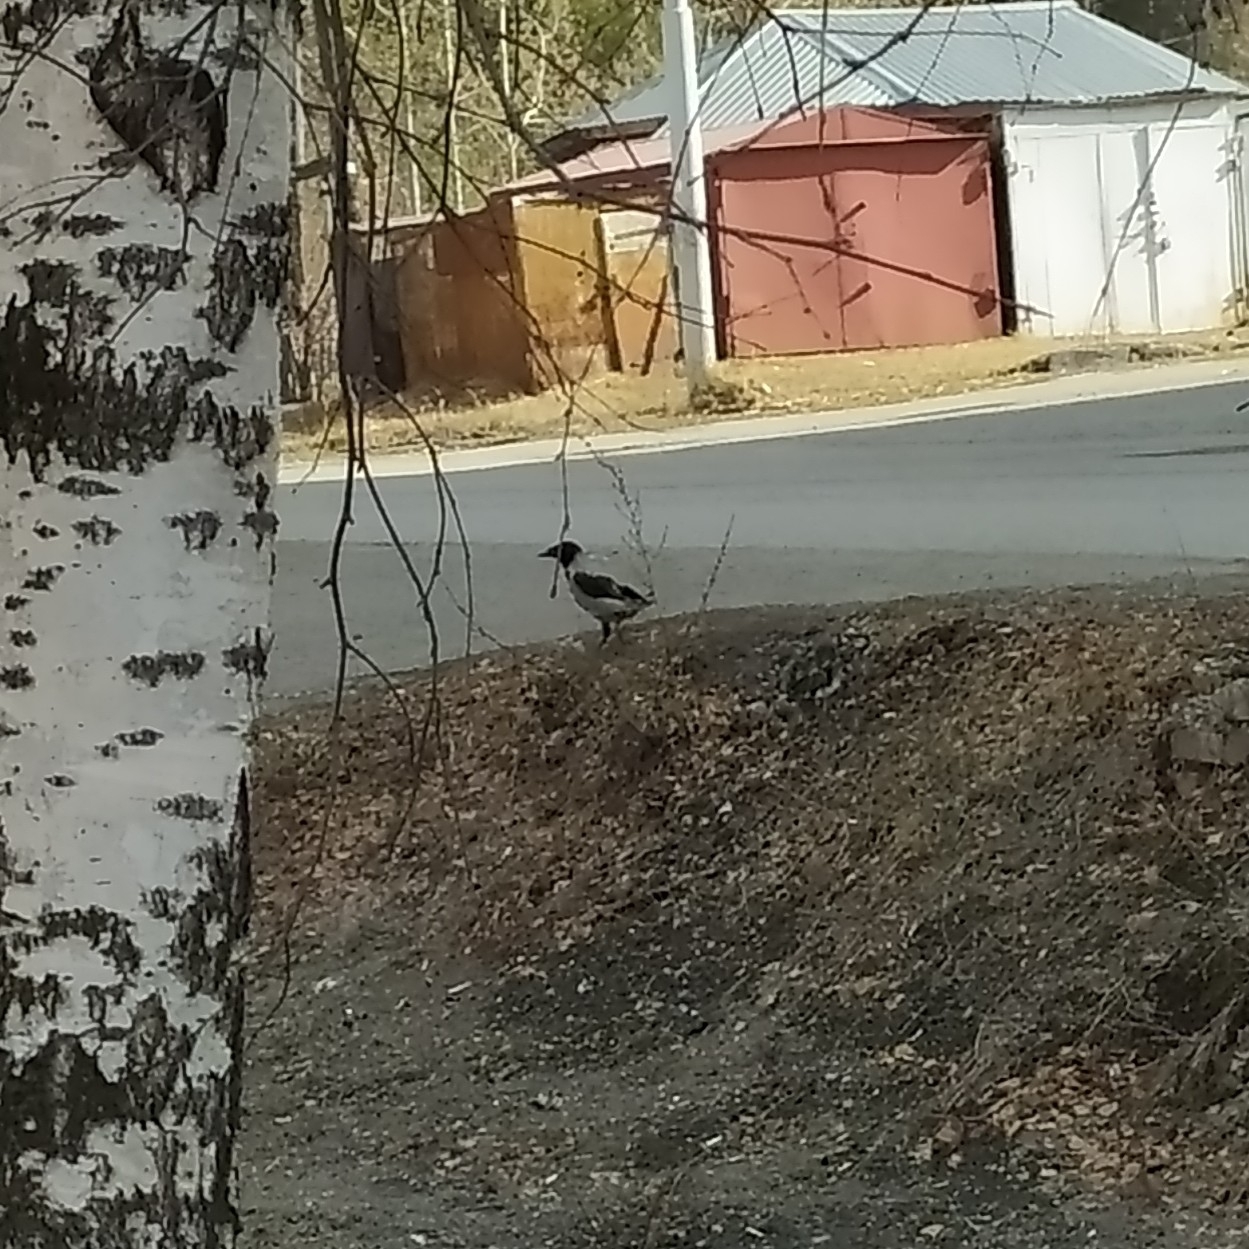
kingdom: Animalia
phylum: Chordata
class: Aves
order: Passeriformes
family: Corvidae
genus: Corvus
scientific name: Corvus cornix
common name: Hooded crow
